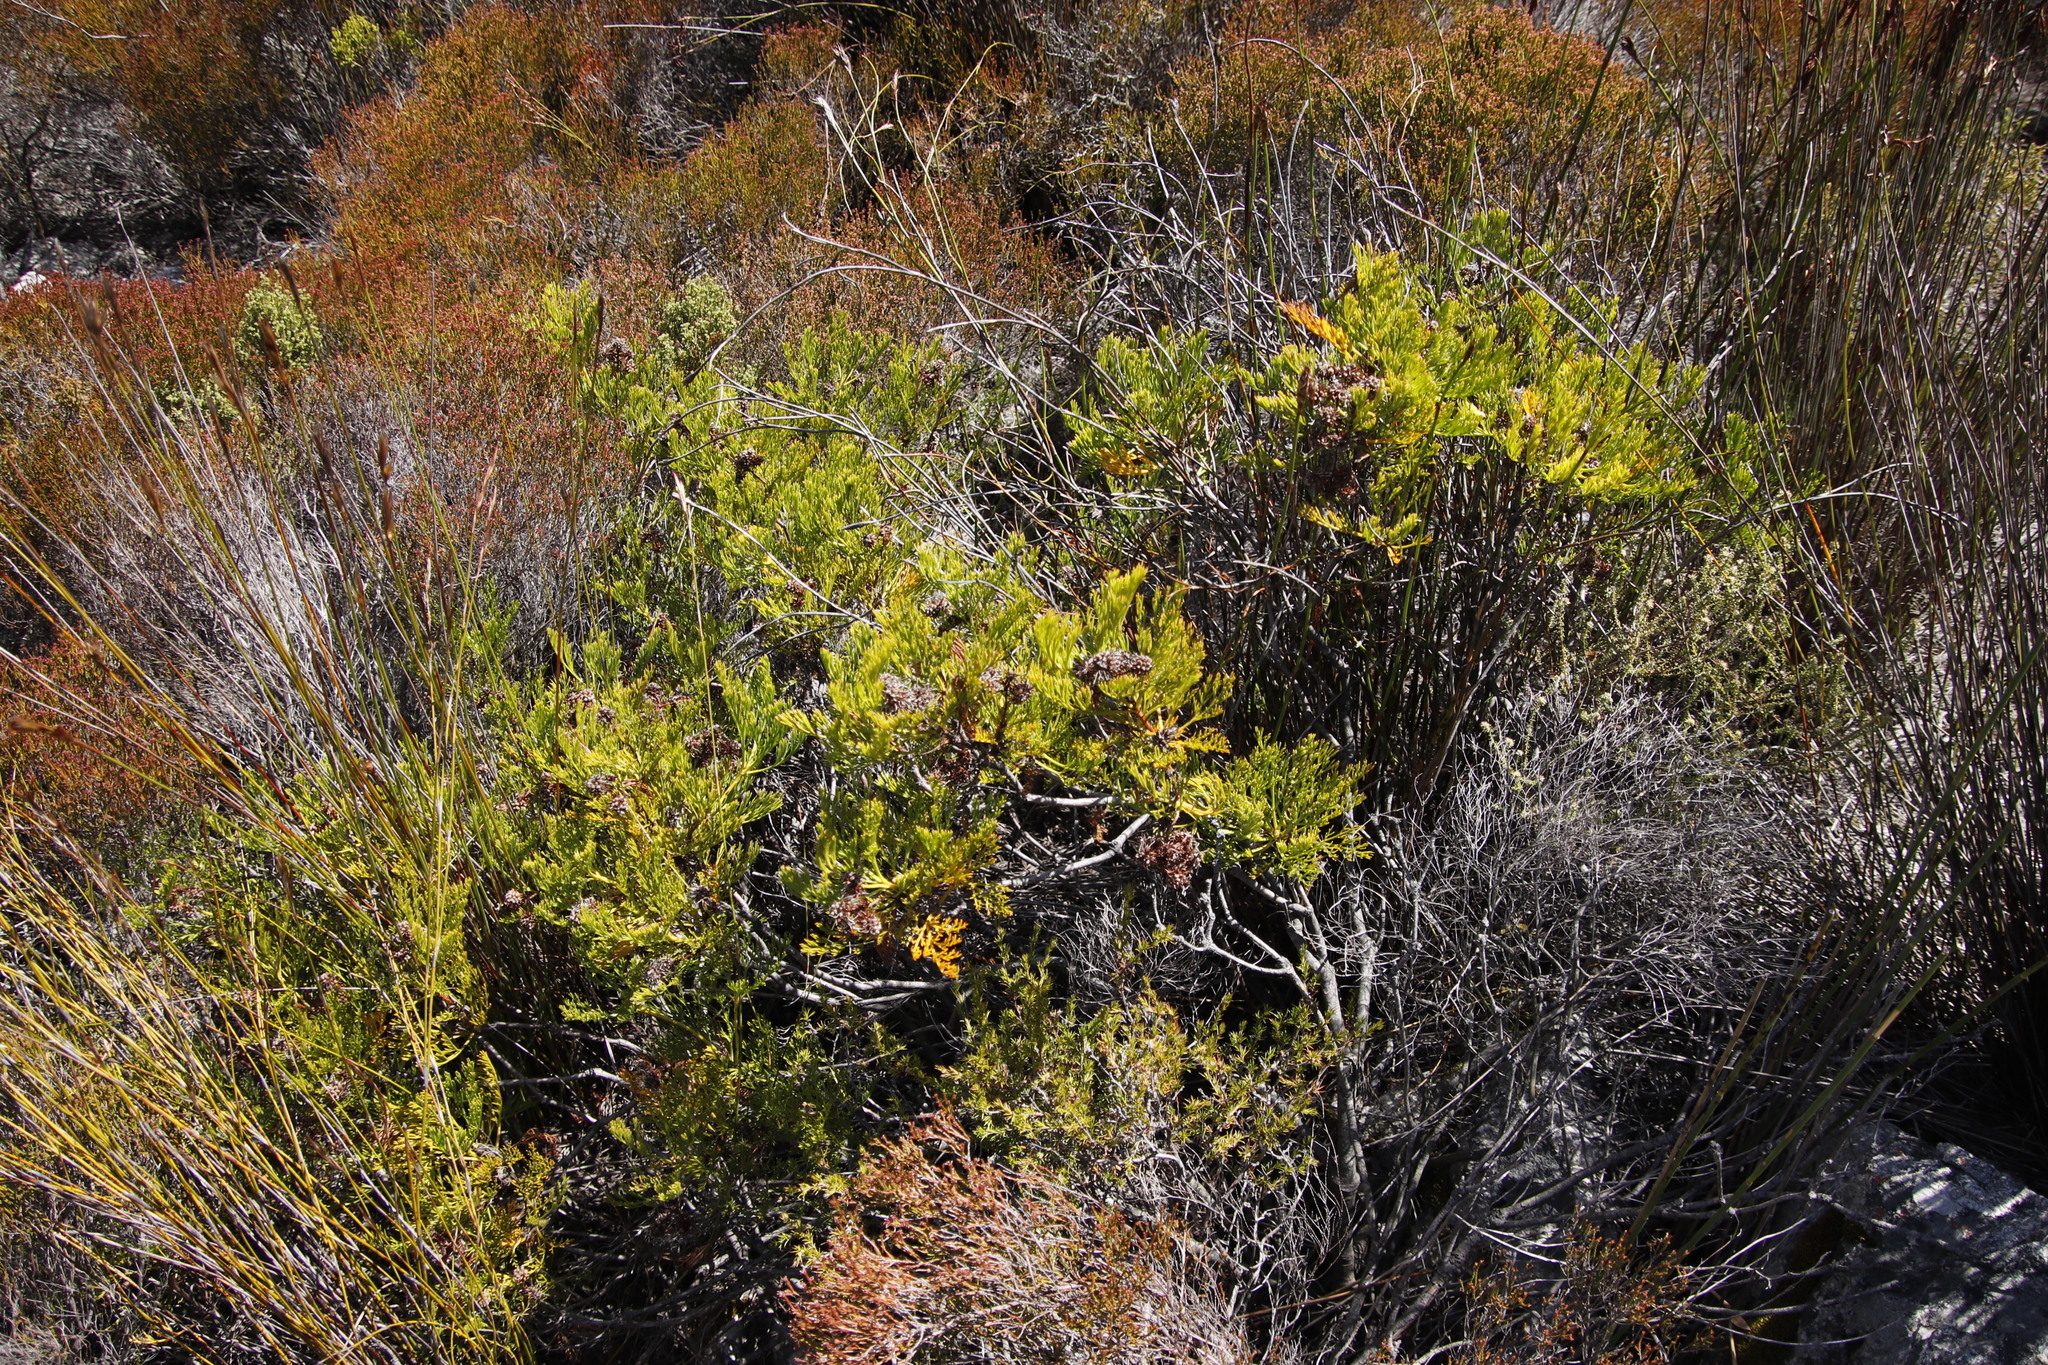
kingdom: Plantae
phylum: Tracheophyta
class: Magnoliopsida
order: Proteales
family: Proteaceae
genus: Serruria
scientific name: Serruria elongata
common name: Long-stalk spiderhead
